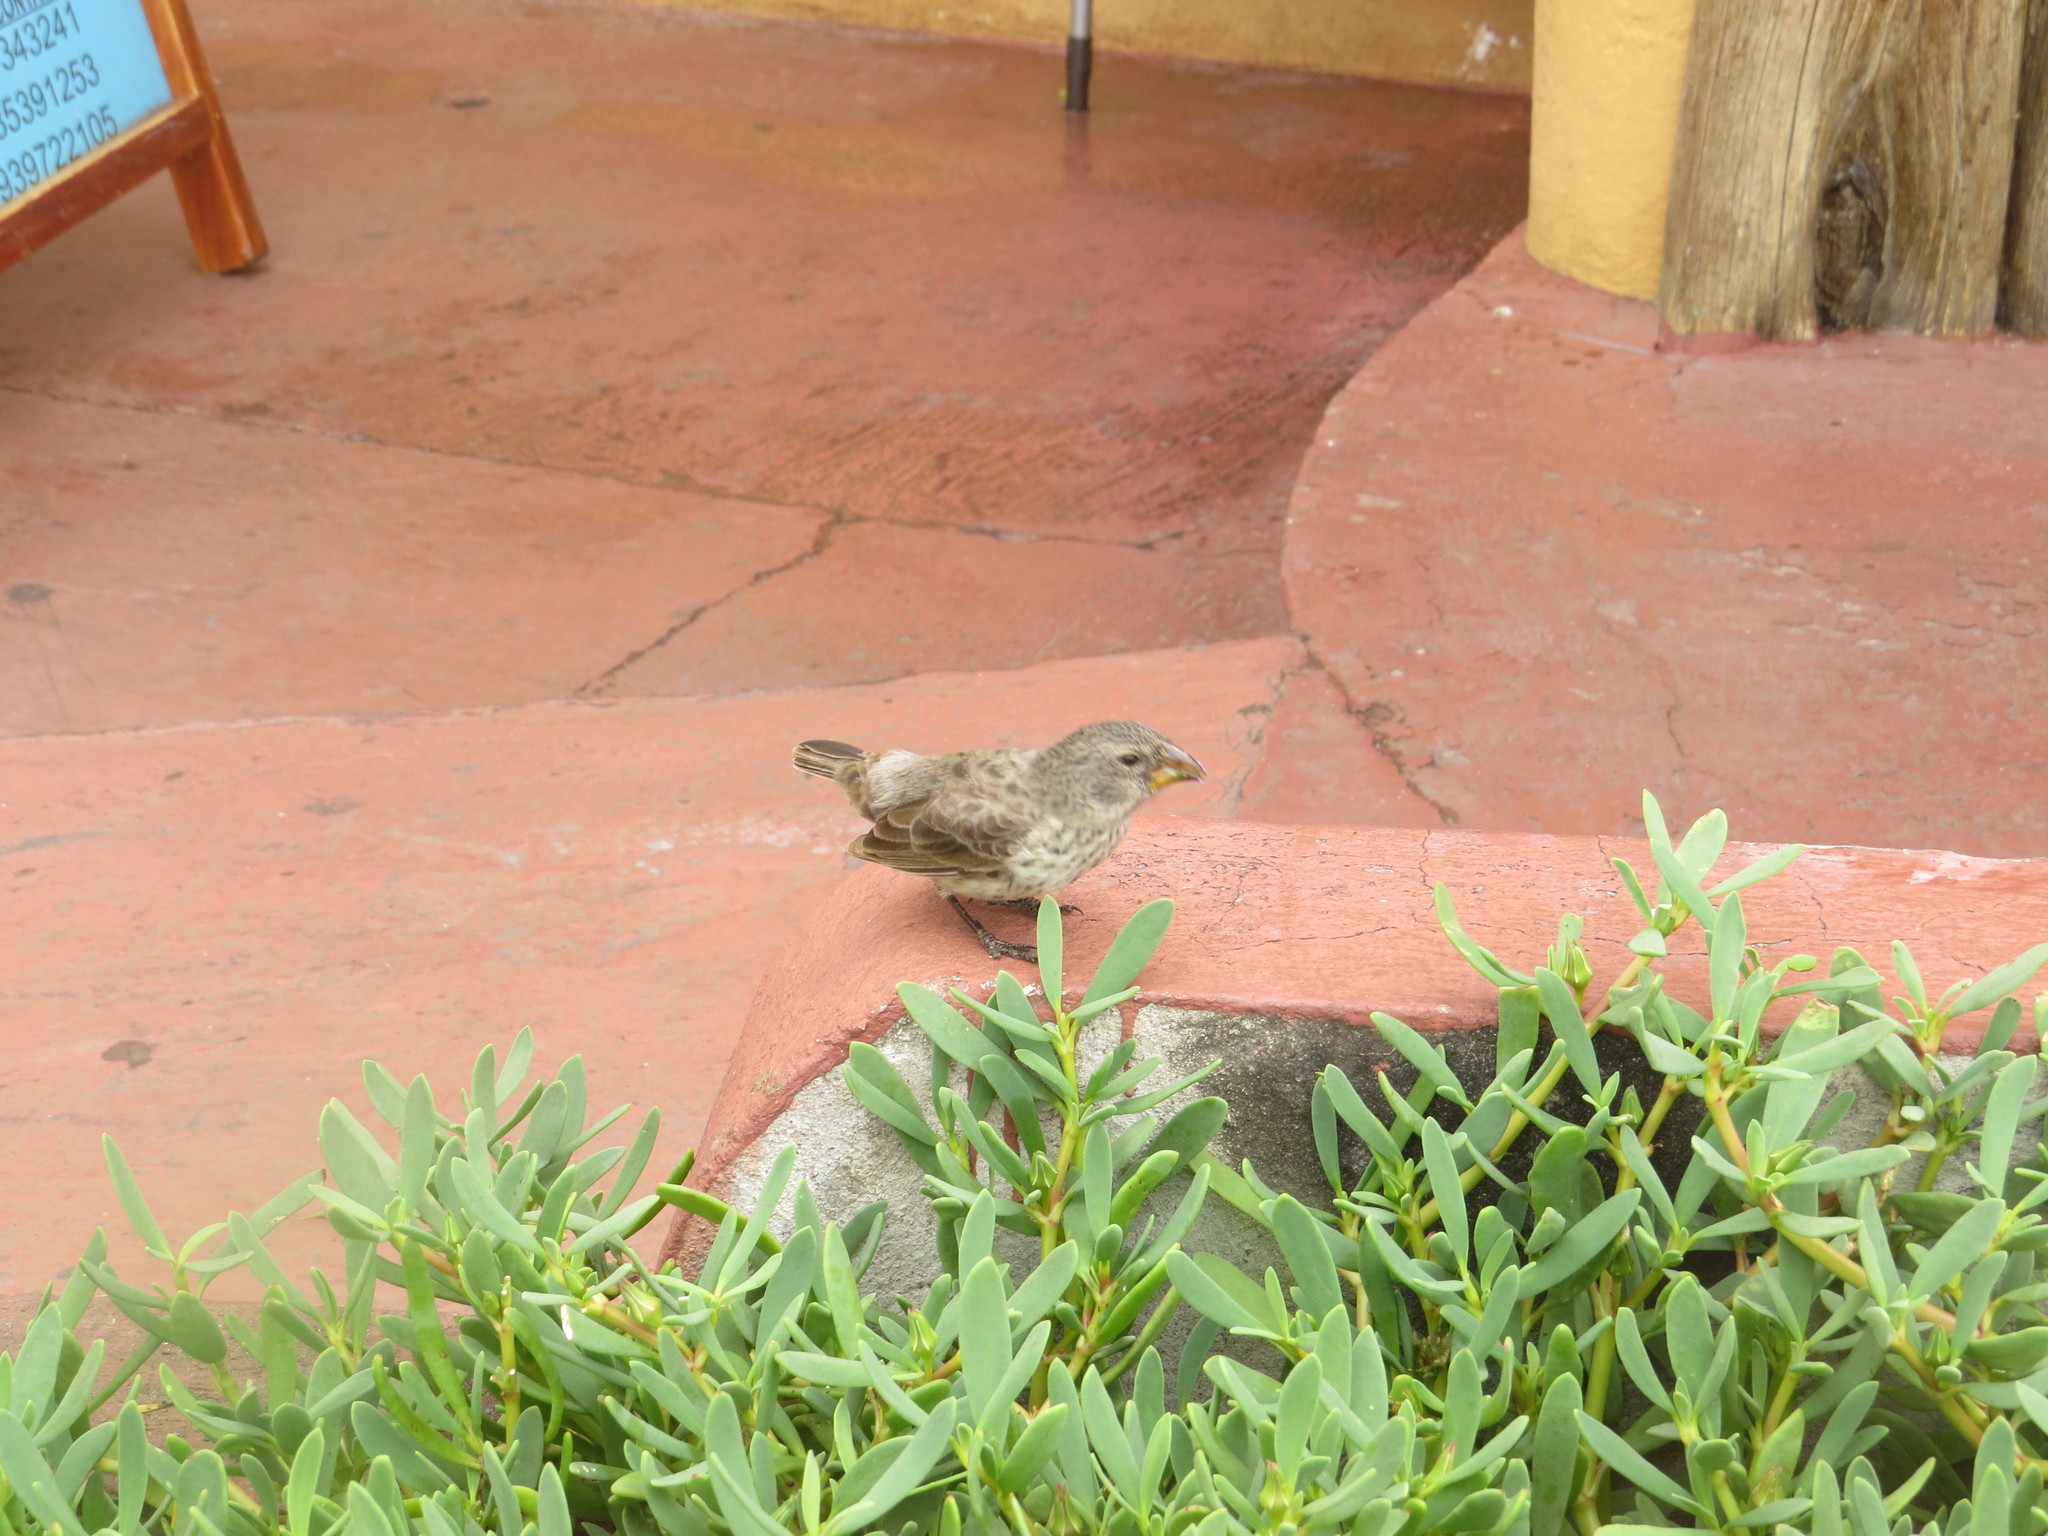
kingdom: Animalia
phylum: Chordata
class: Aves
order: Passeriformes
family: Thraupidae
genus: Geospiza
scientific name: Geospiza fuliginosa
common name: Small ground finch
